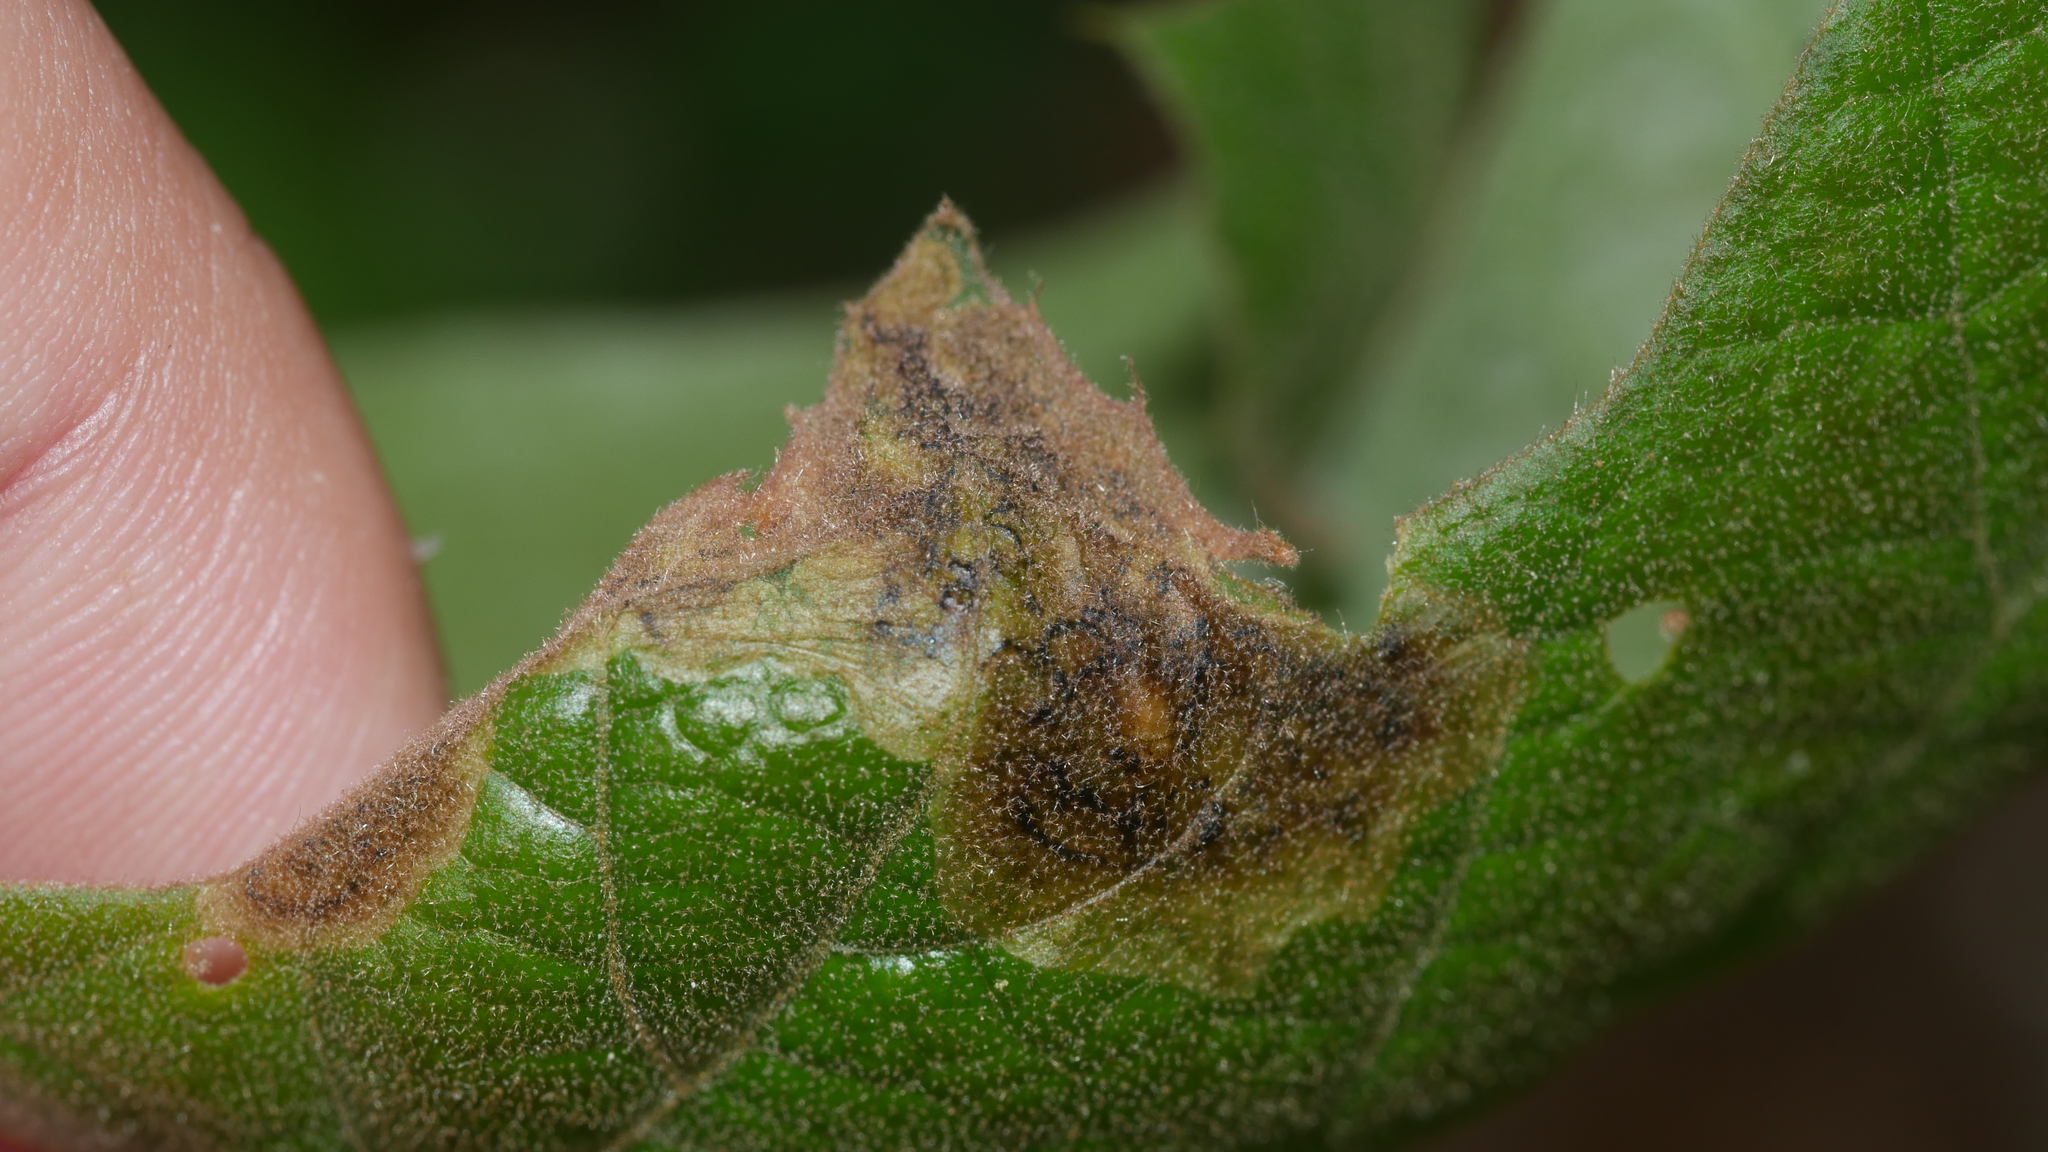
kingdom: Animalia
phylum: Arthropoda
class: Insecta
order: Diptera
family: Agromyzidae
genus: Japanagromyza
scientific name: Japanagromyza viridula
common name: Oak shothole leafminer
